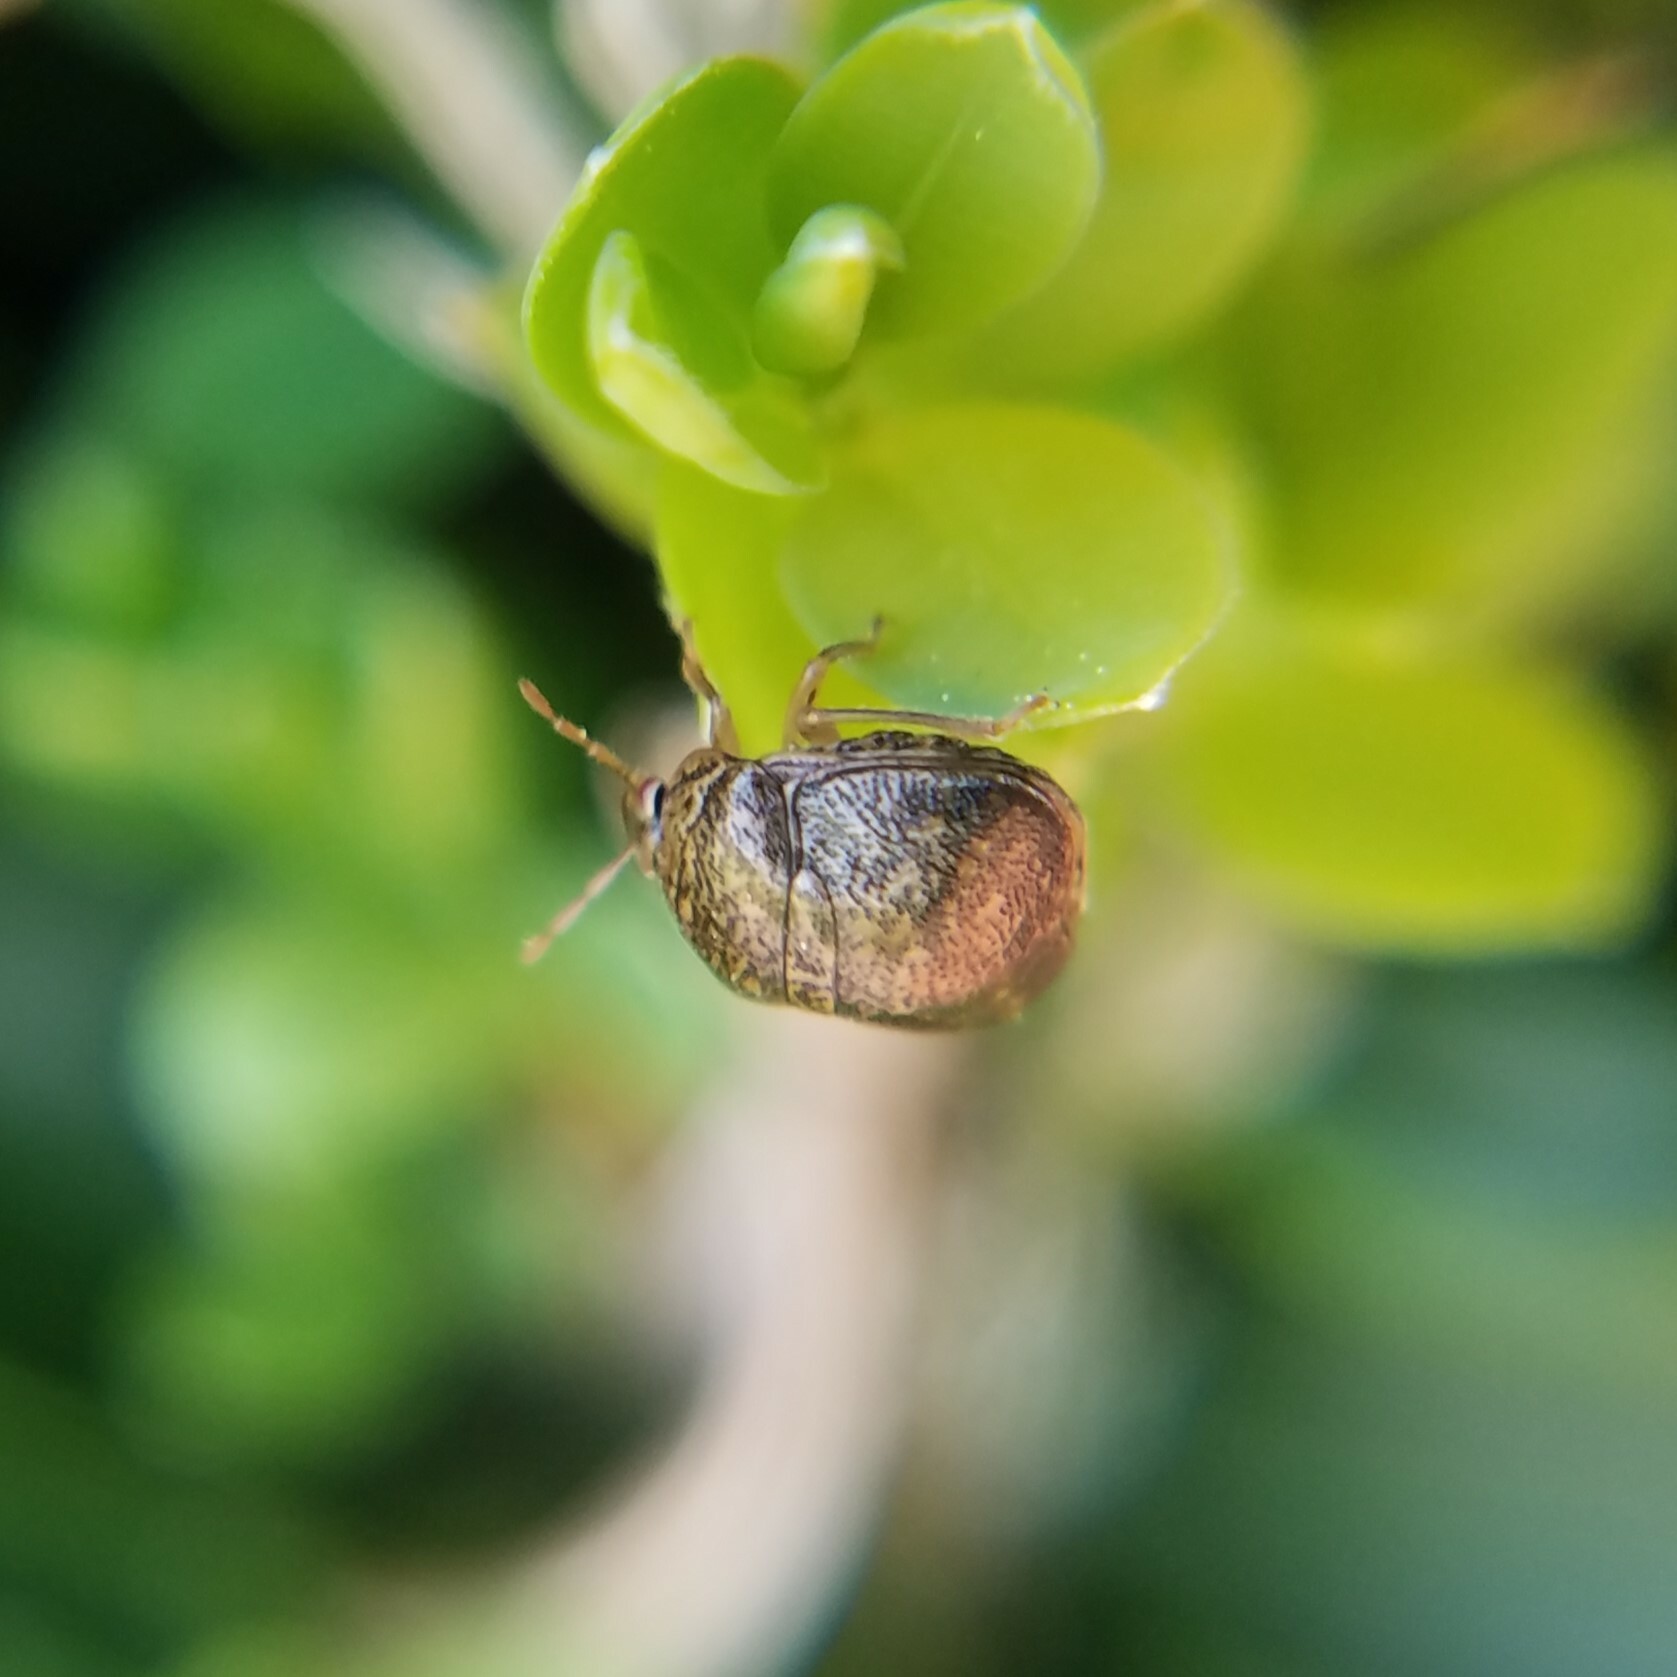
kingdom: Animalia
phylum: Arthropoda
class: Insecta
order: Hemiptera
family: Plataspidae
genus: Megacopta
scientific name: Megacopta cribraria
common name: Bean plataspid
